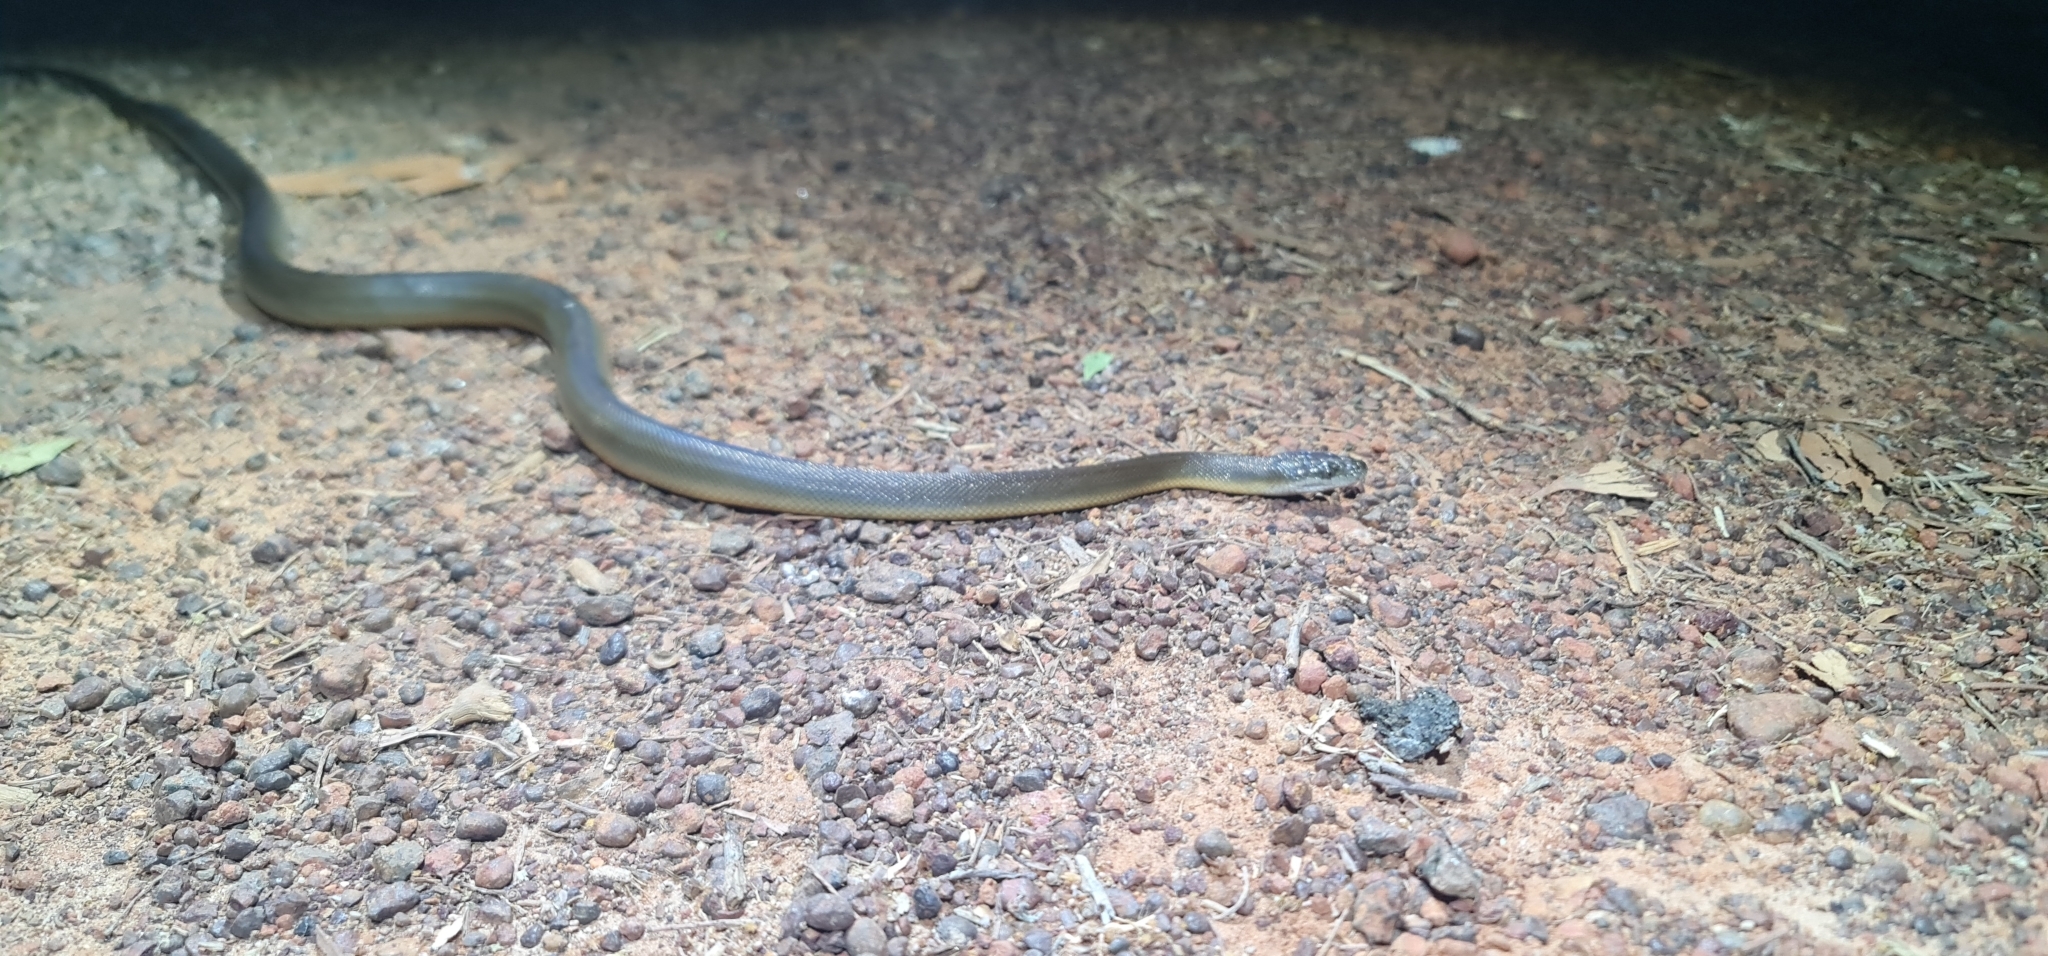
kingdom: Animalia
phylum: Chordata
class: Squamata
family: Pythonidae
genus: Liasis
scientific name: Liasis fuscus
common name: Brown water python
